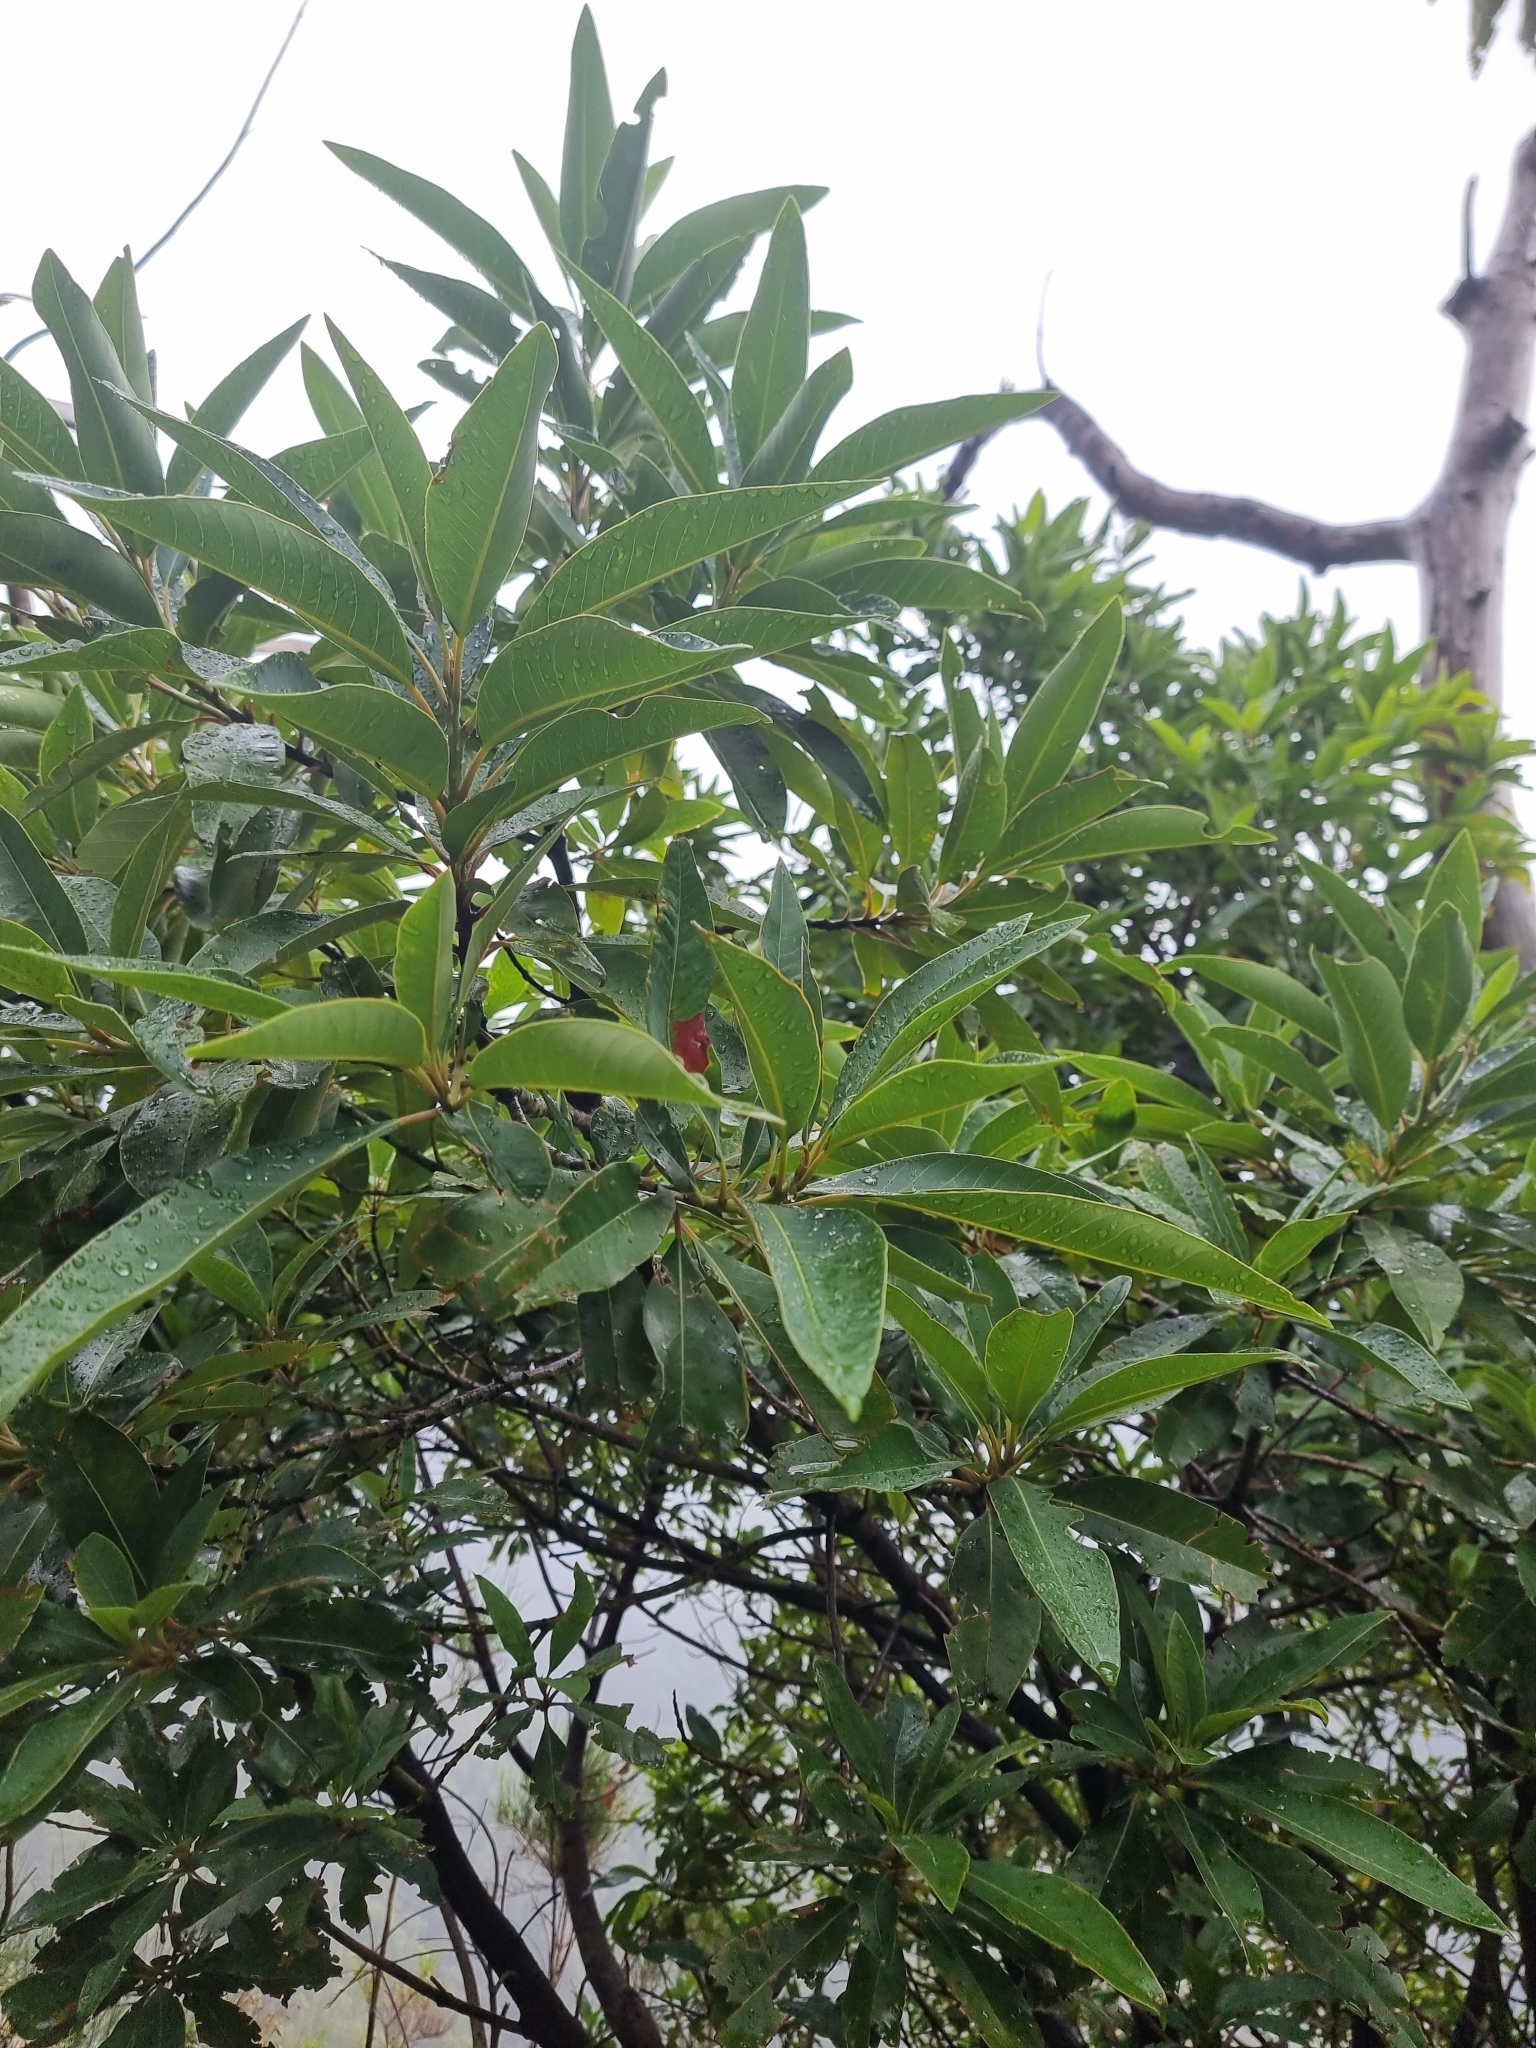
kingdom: Plantae
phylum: Tracheophyta
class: Magnoliopsida
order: Laurales
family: Lauraceae
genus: Persea
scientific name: Persea indica
